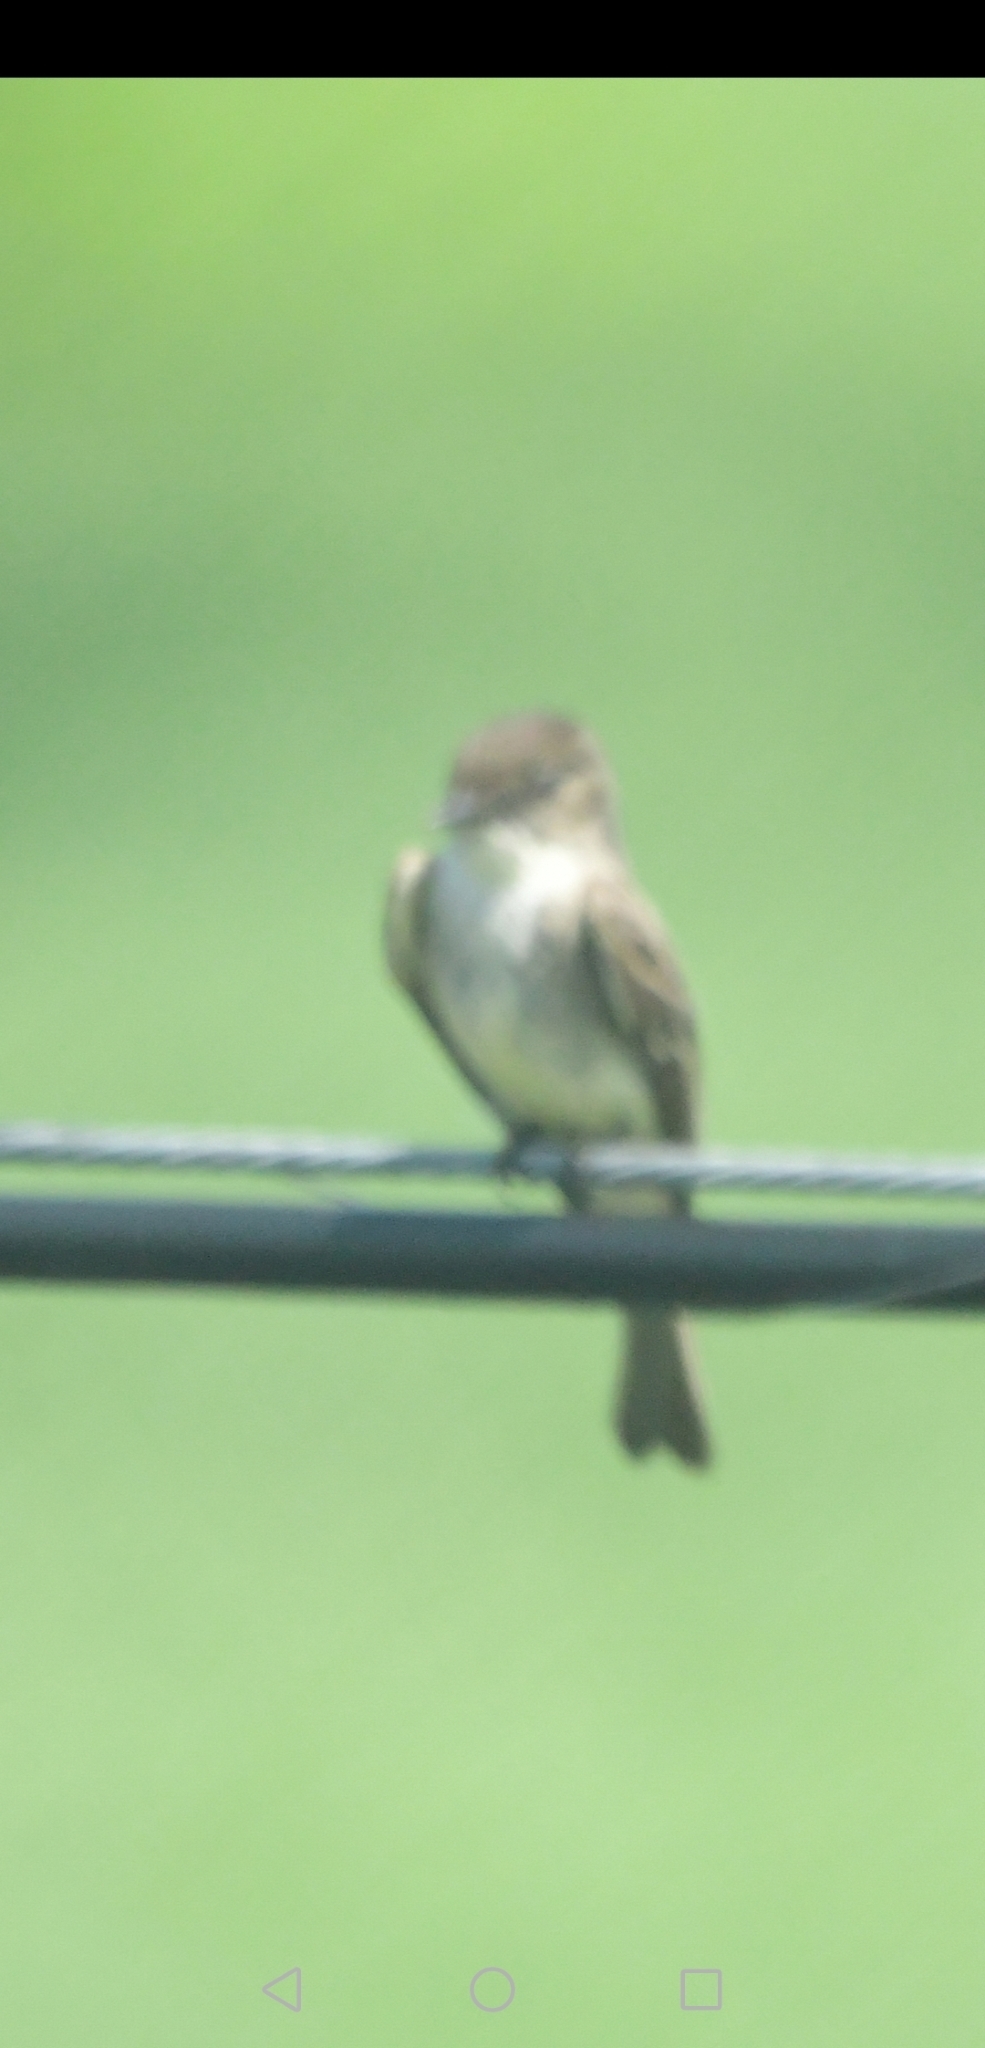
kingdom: Animalia
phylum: Chordata
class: Aves
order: Passeriformes
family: Tyrannidae
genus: Sayornis
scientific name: Sayornis phoebe
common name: Eastern phoebe
